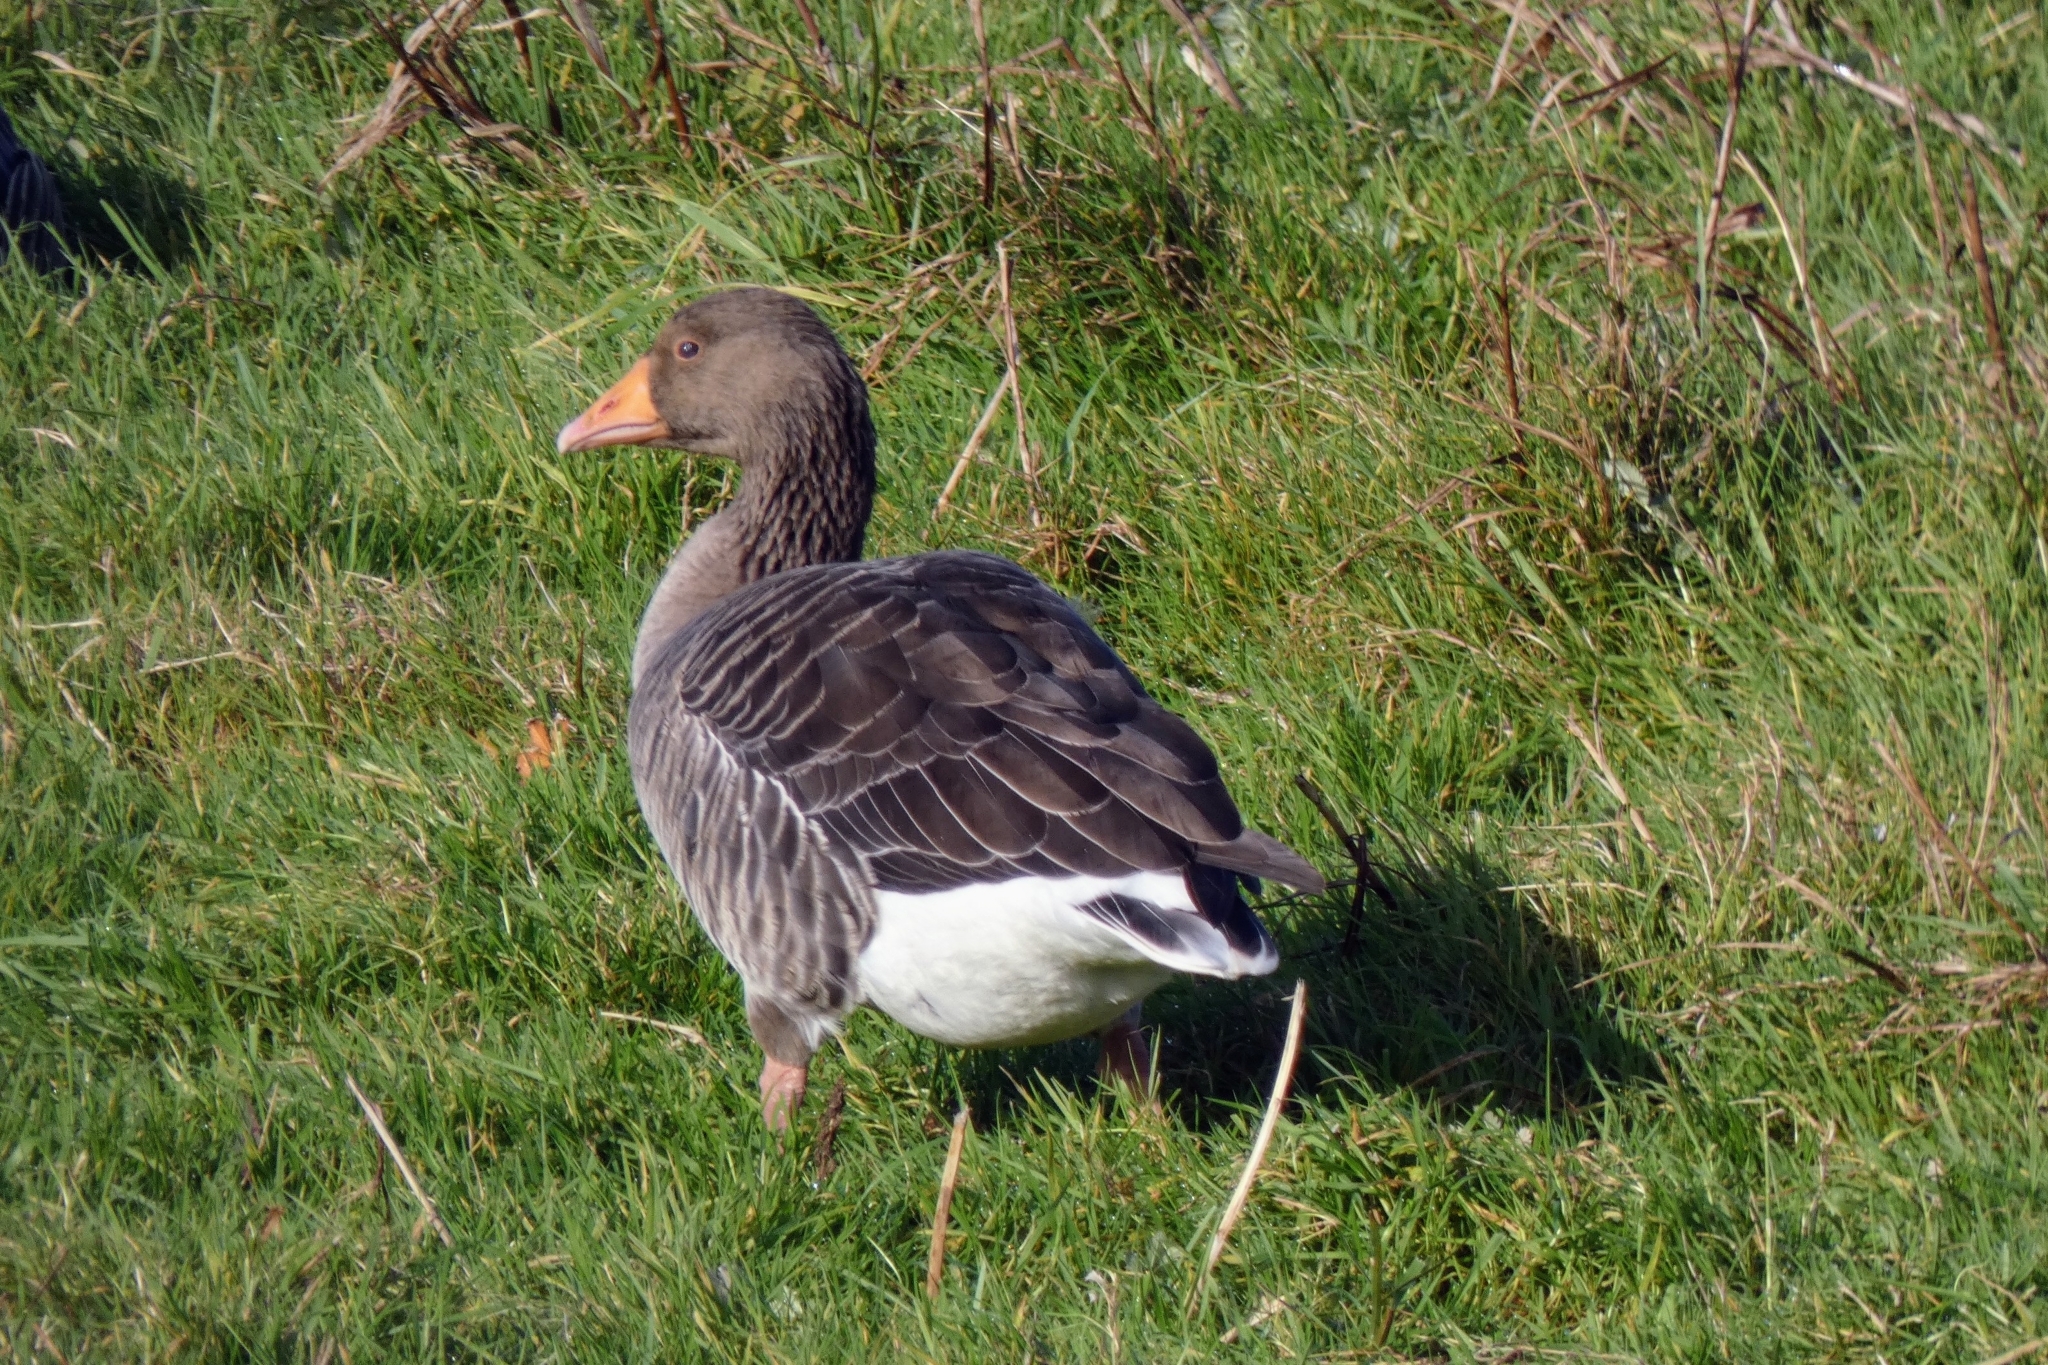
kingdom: Animalia
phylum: Chordata
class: Aves
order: Anseriformes
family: Anatidae
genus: Anser
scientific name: Anser anser
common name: Greylag goose
